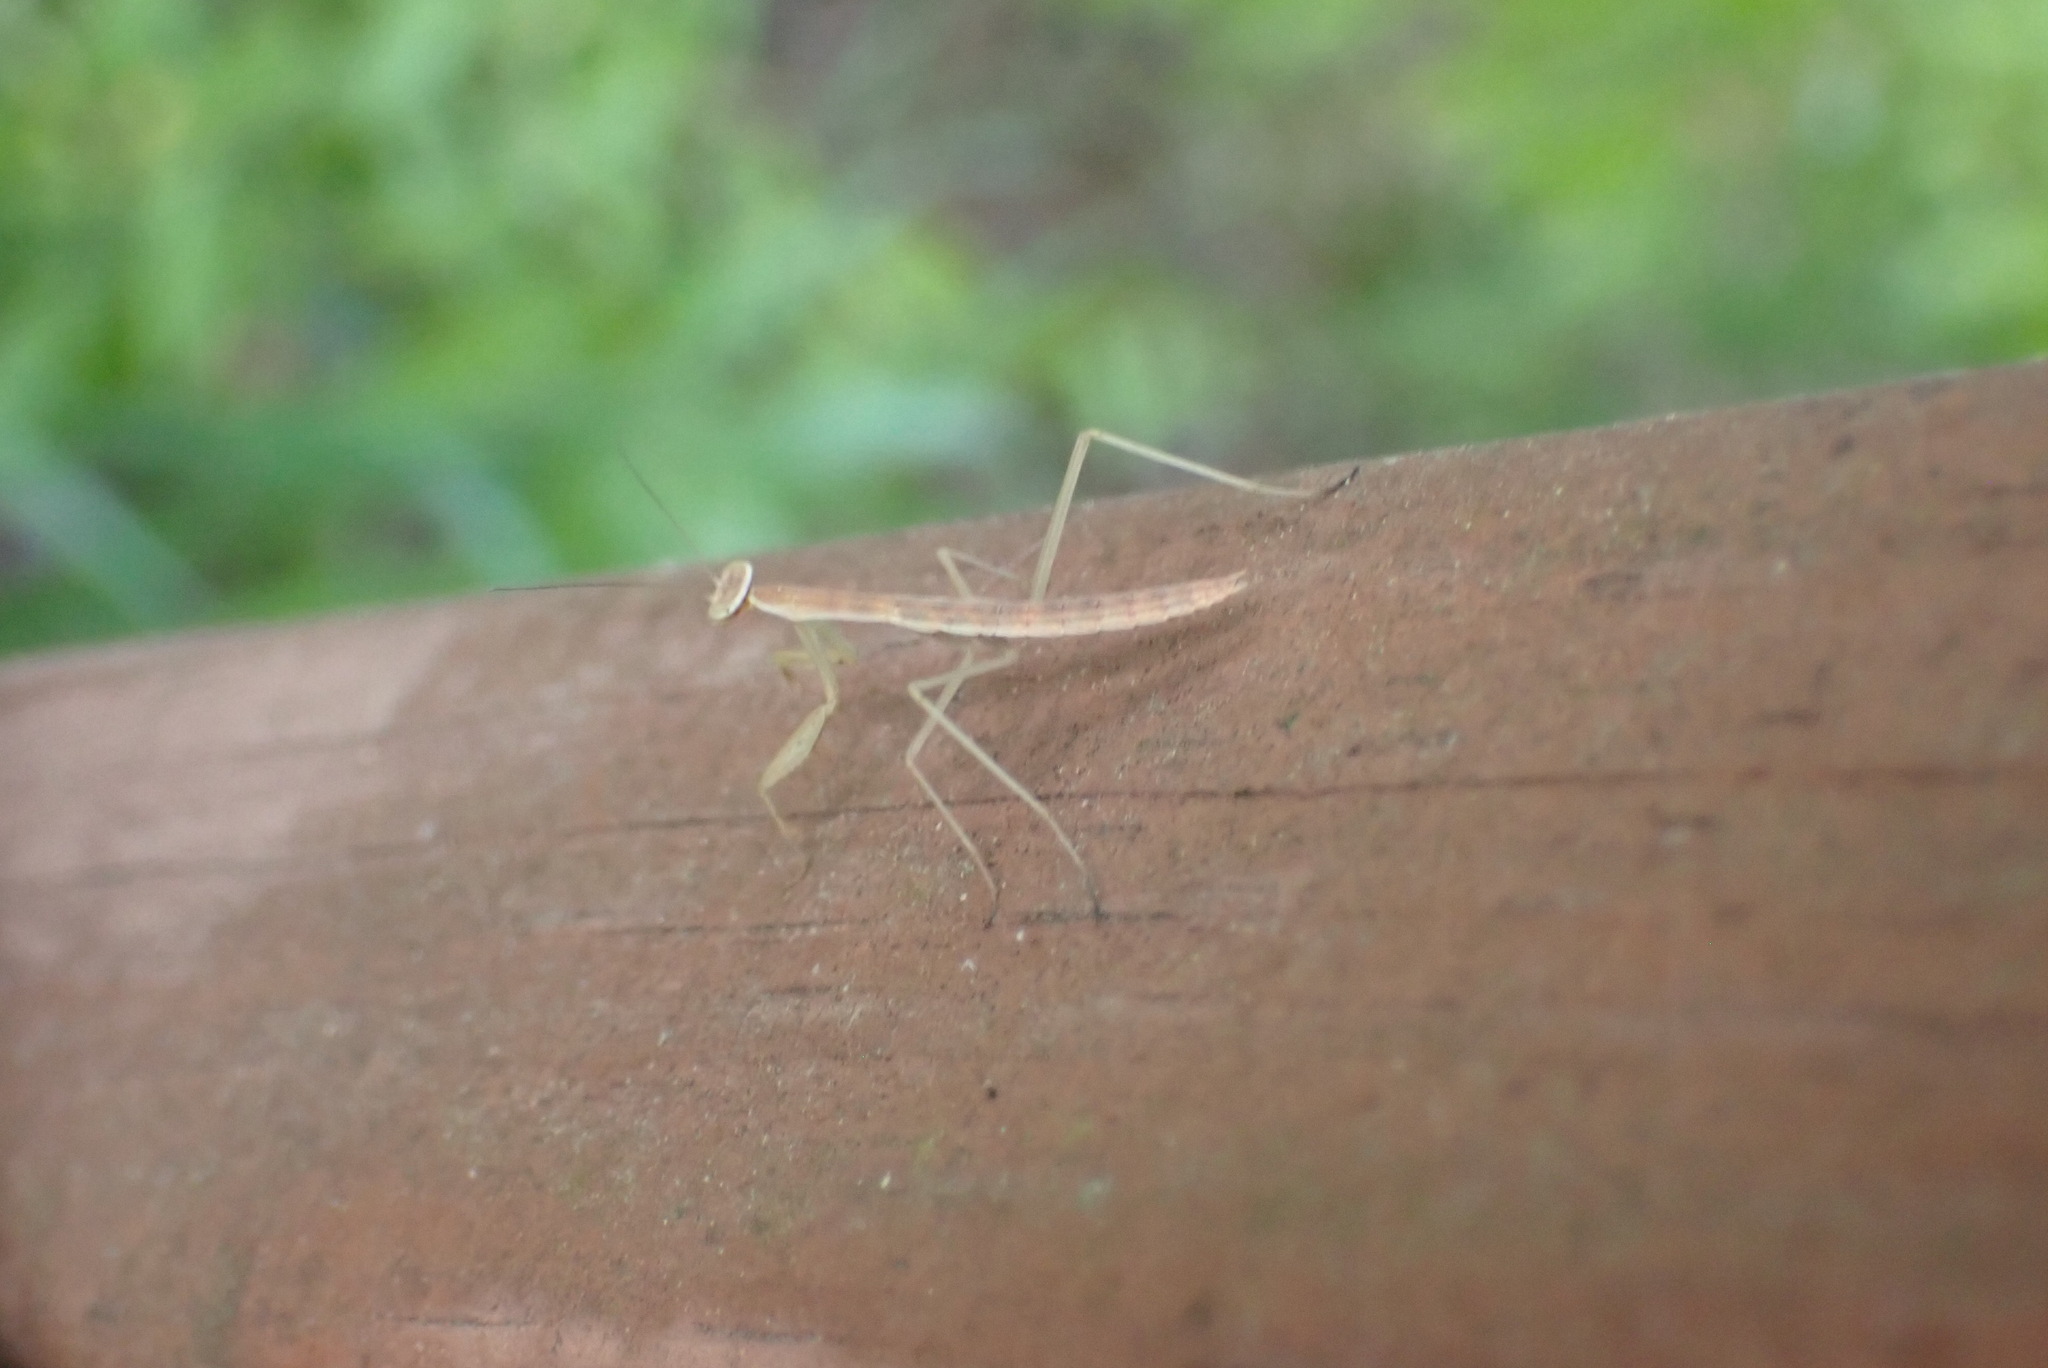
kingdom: Animalia
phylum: Arthropoda
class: Insecta
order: Mantodea
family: Mantidae
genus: Tenodera
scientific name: Tenodera sinensis
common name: Chinese mantis
